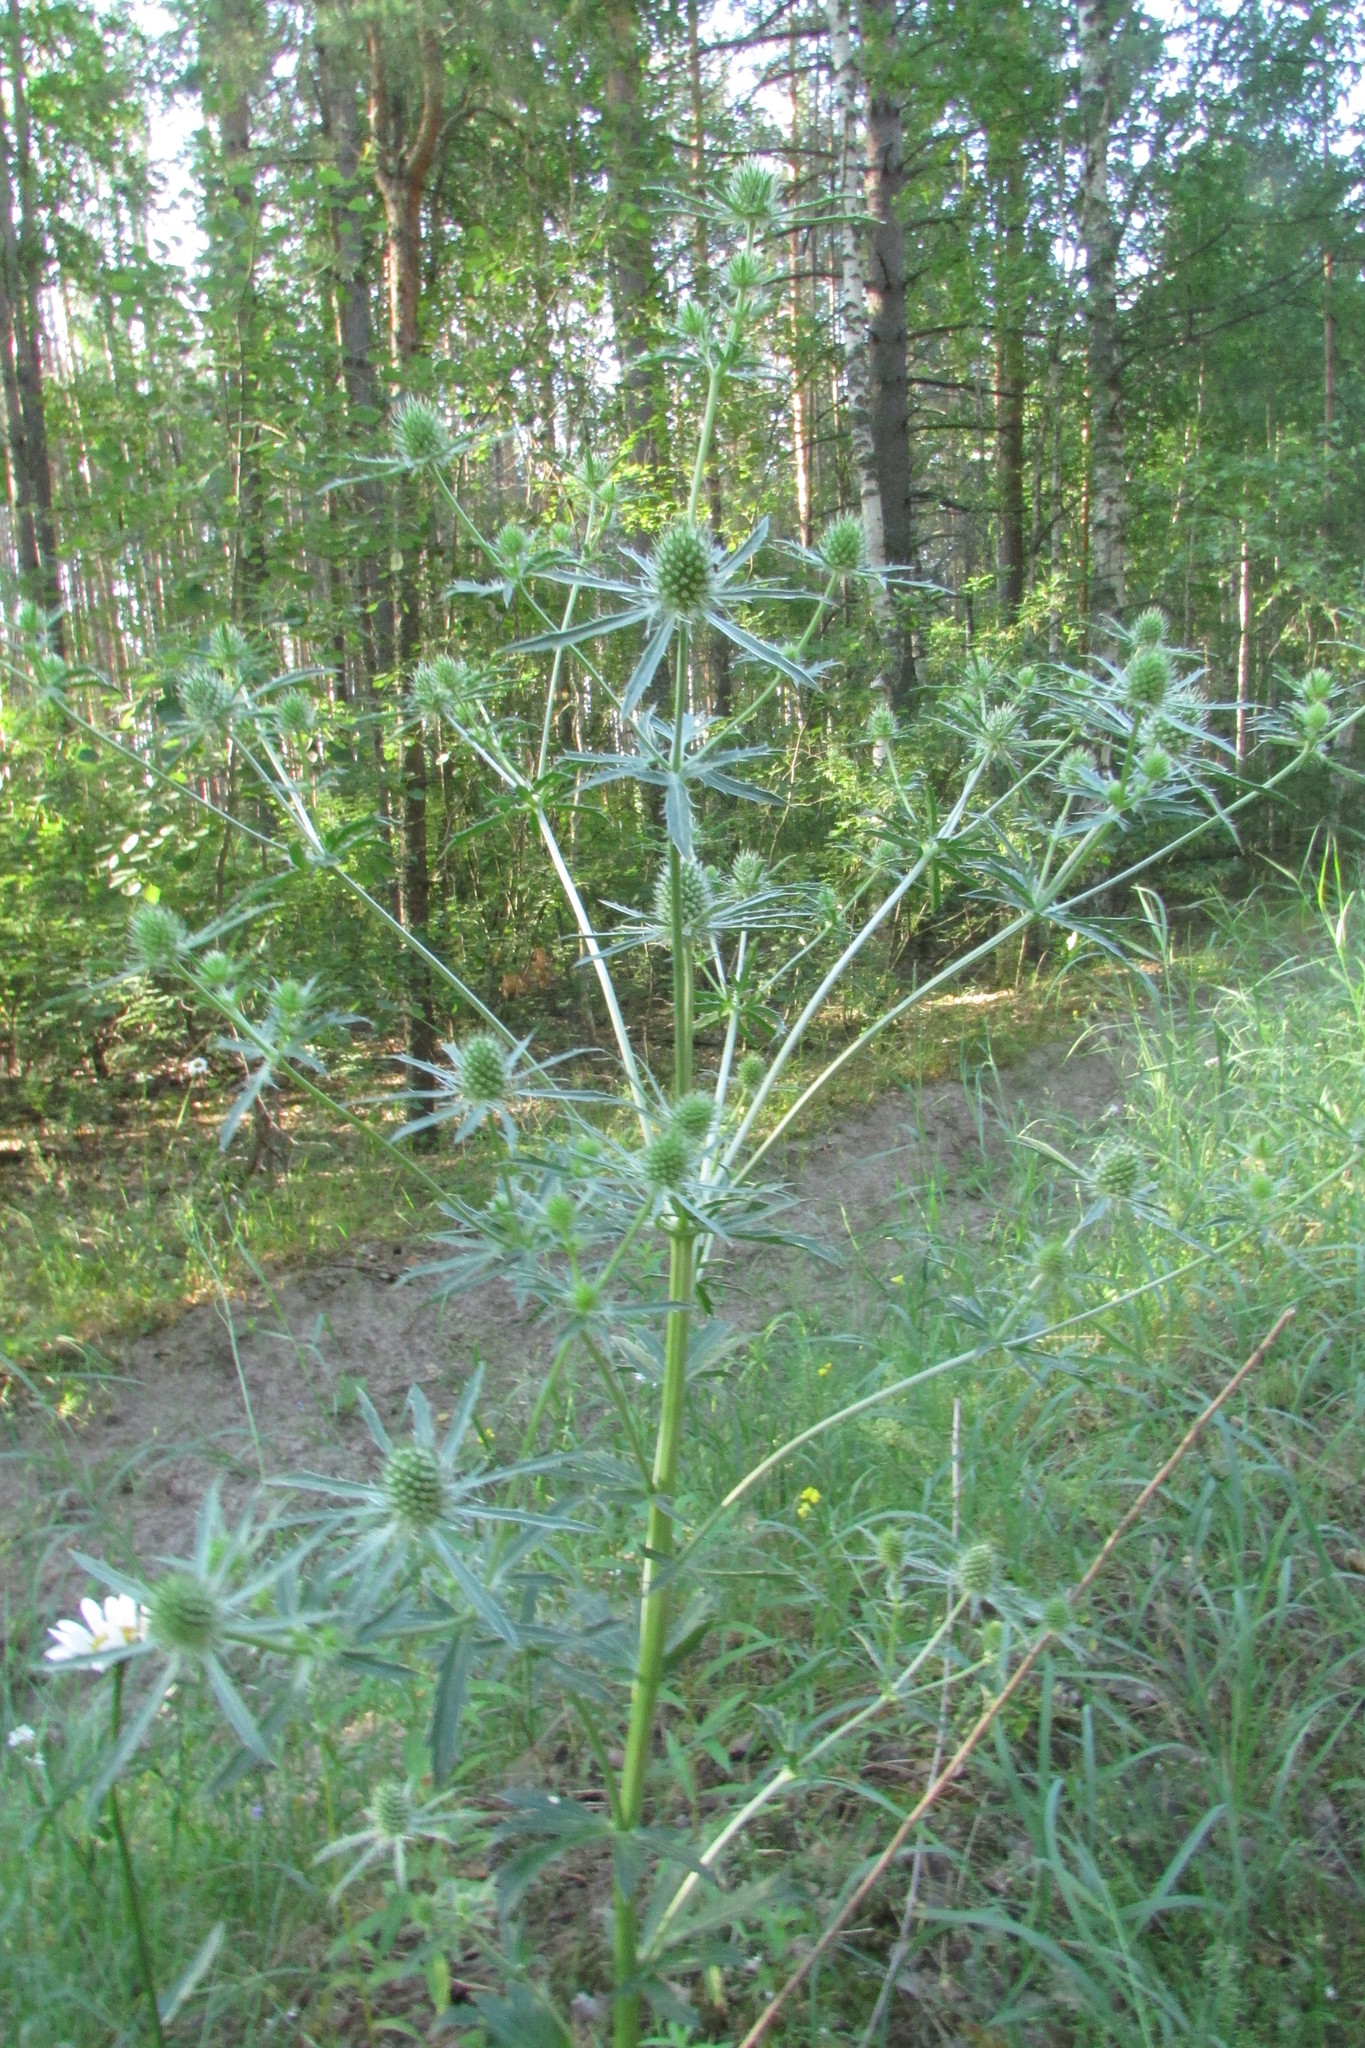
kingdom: Plantae
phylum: Tracheophyta
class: Magnoliopsida
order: Apiales
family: Apiaceae
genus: Eryngium
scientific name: Eryngium planum
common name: Blue eryngo
